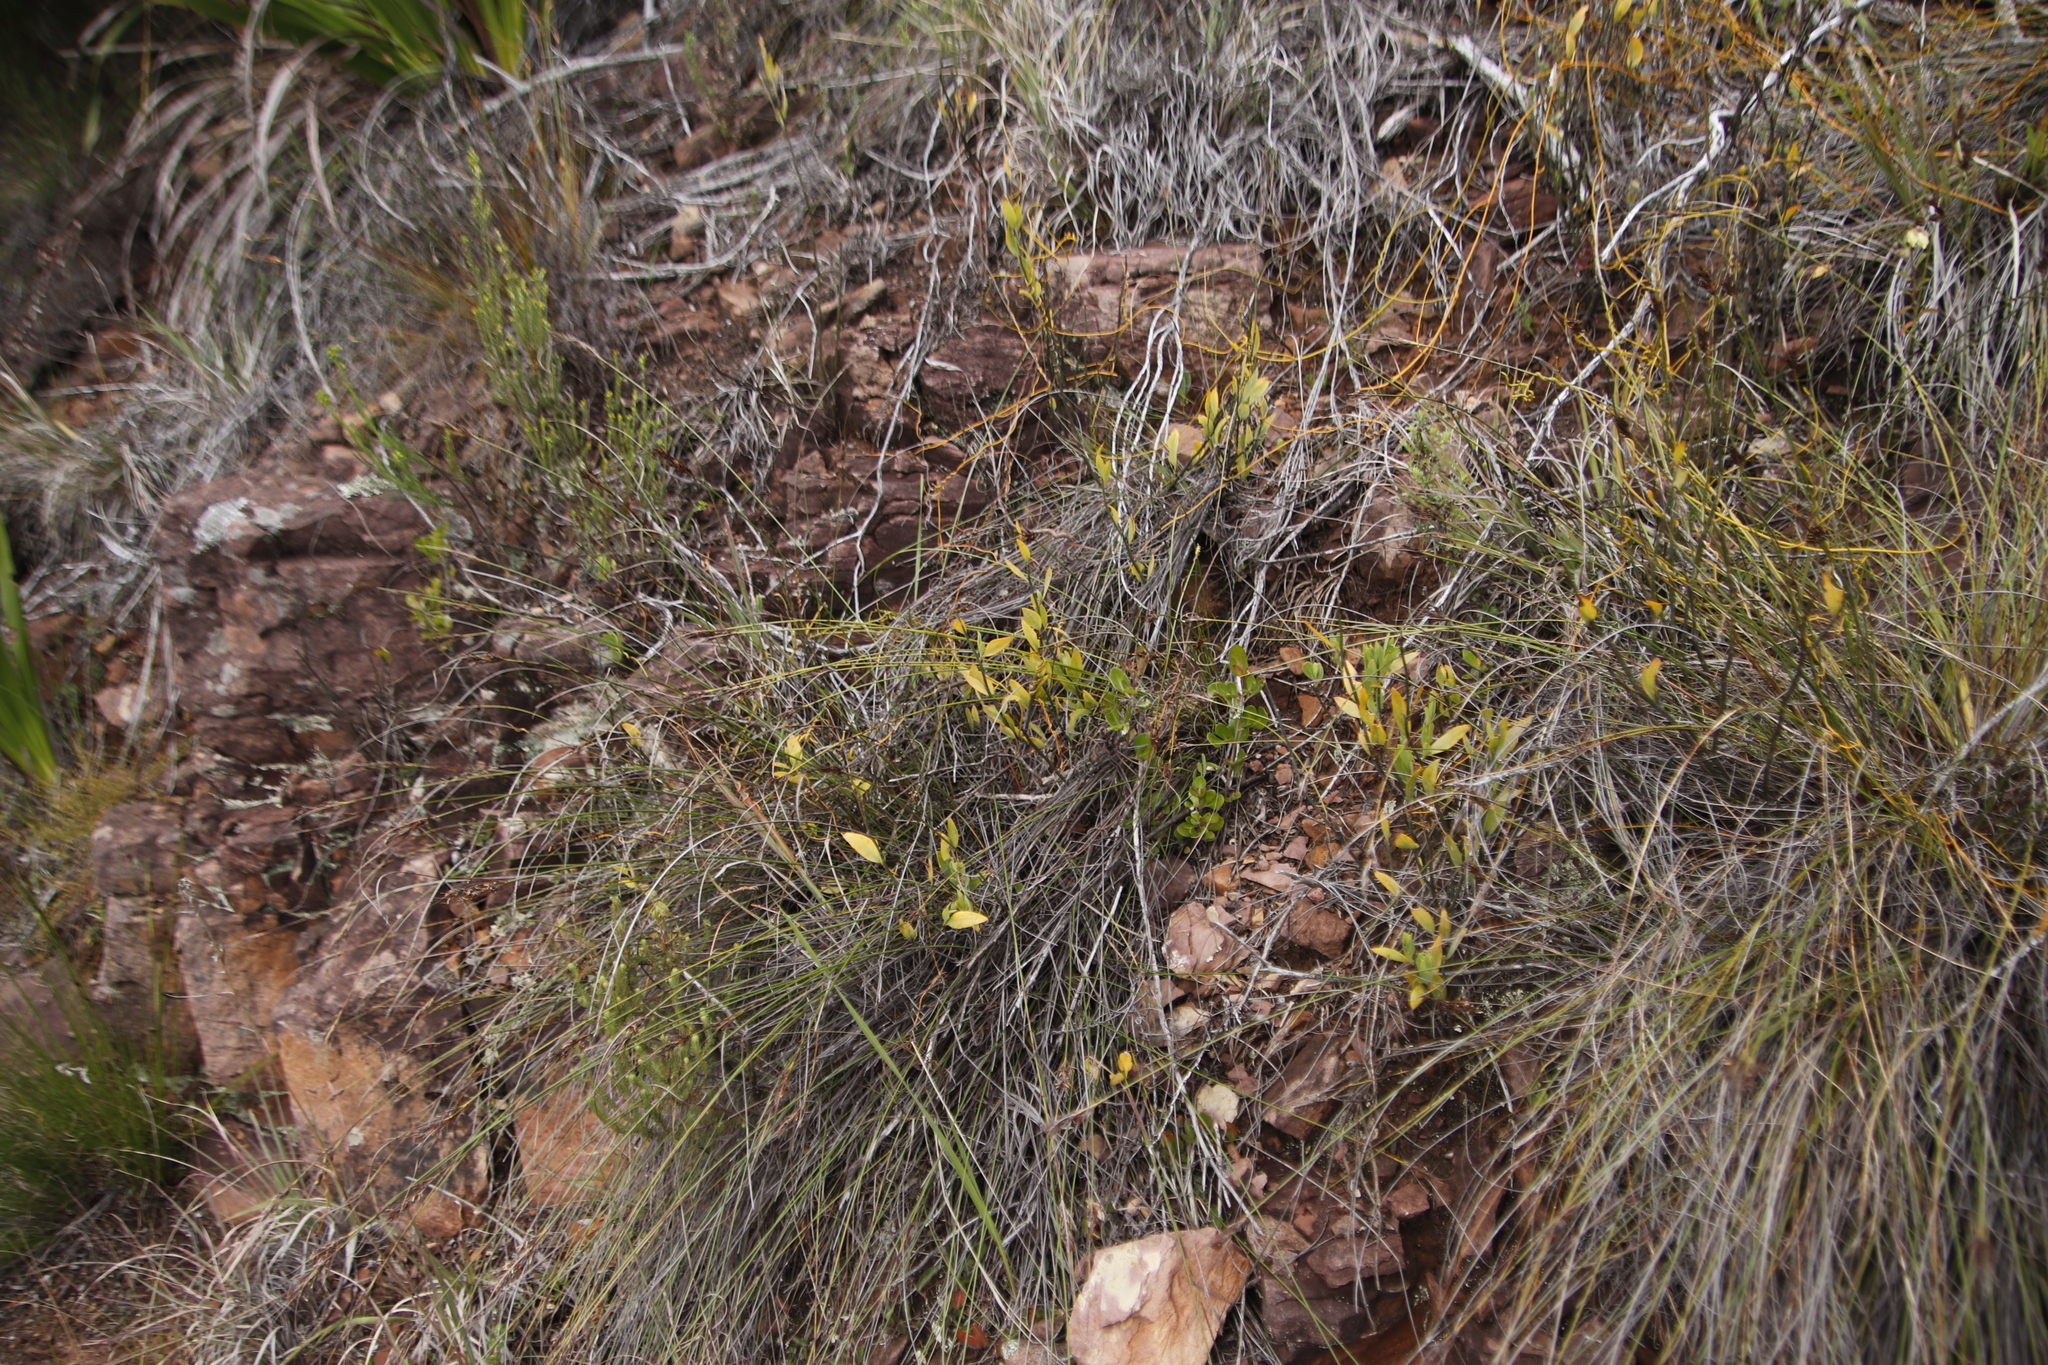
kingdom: Plantae
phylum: Tracheophyta
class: Magnoliopsida
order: Solanales
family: Montiniaceae
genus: Montinia
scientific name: Montinia caryophyllacea
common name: Wild clove-bush
